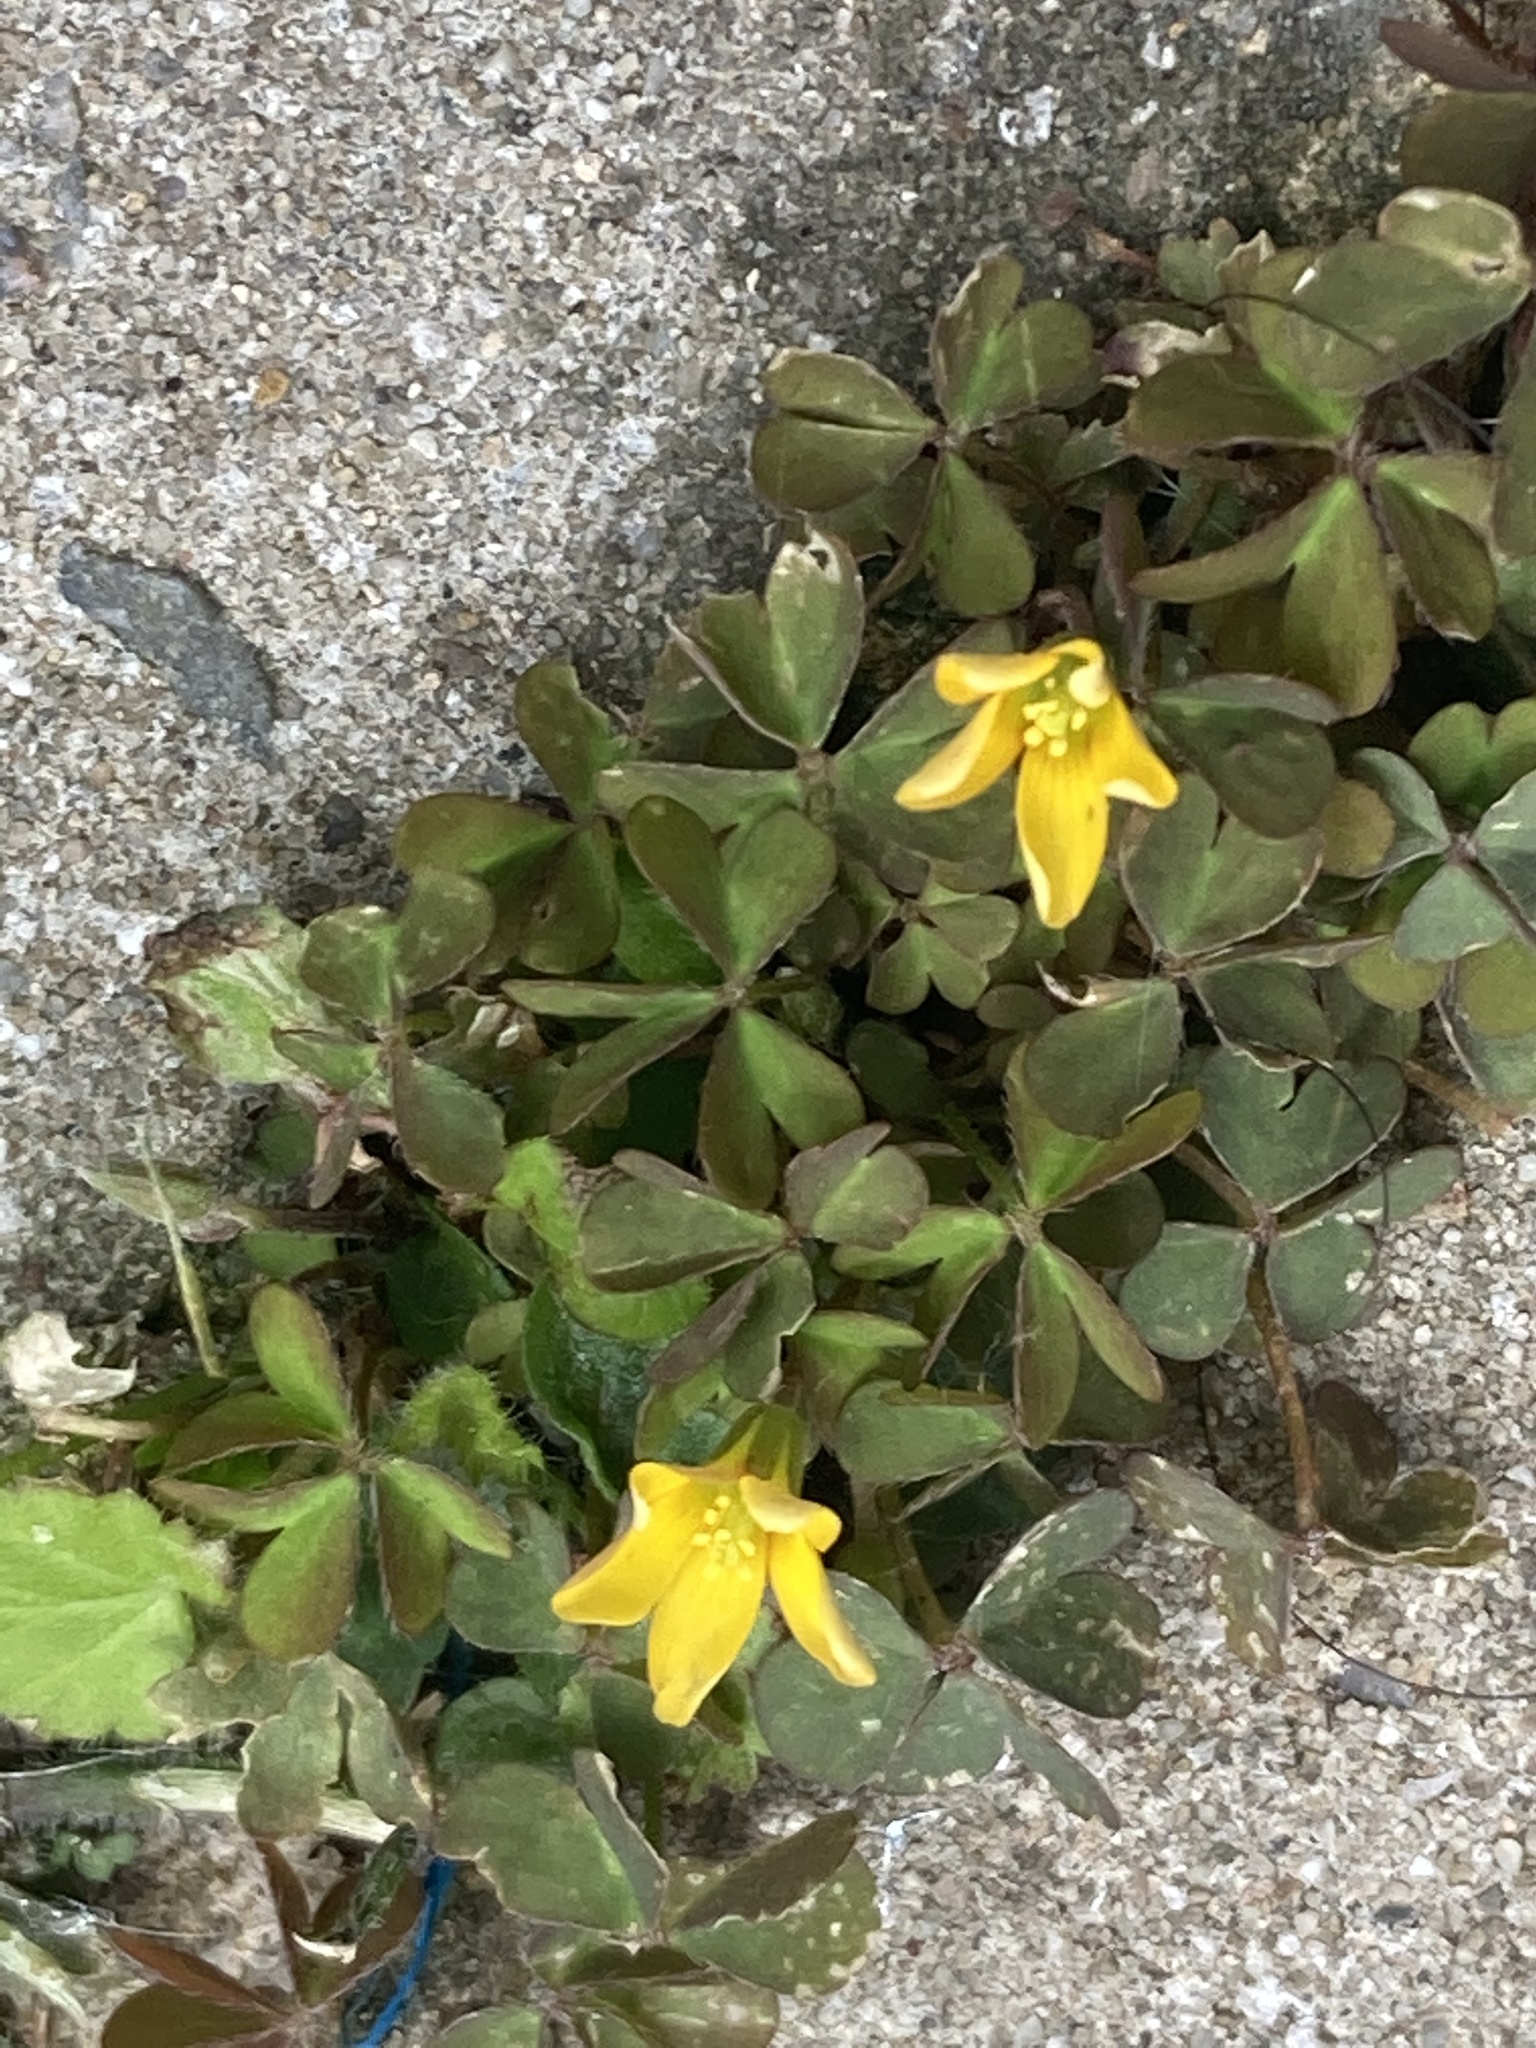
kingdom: Plantae
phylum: Tracheophyta
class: Magnoliopsida
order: Oxalidales
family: Oxalidaceae
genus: Oxalis
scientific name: Oxalis corniculata
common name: Procumbent yellow-sorrel
